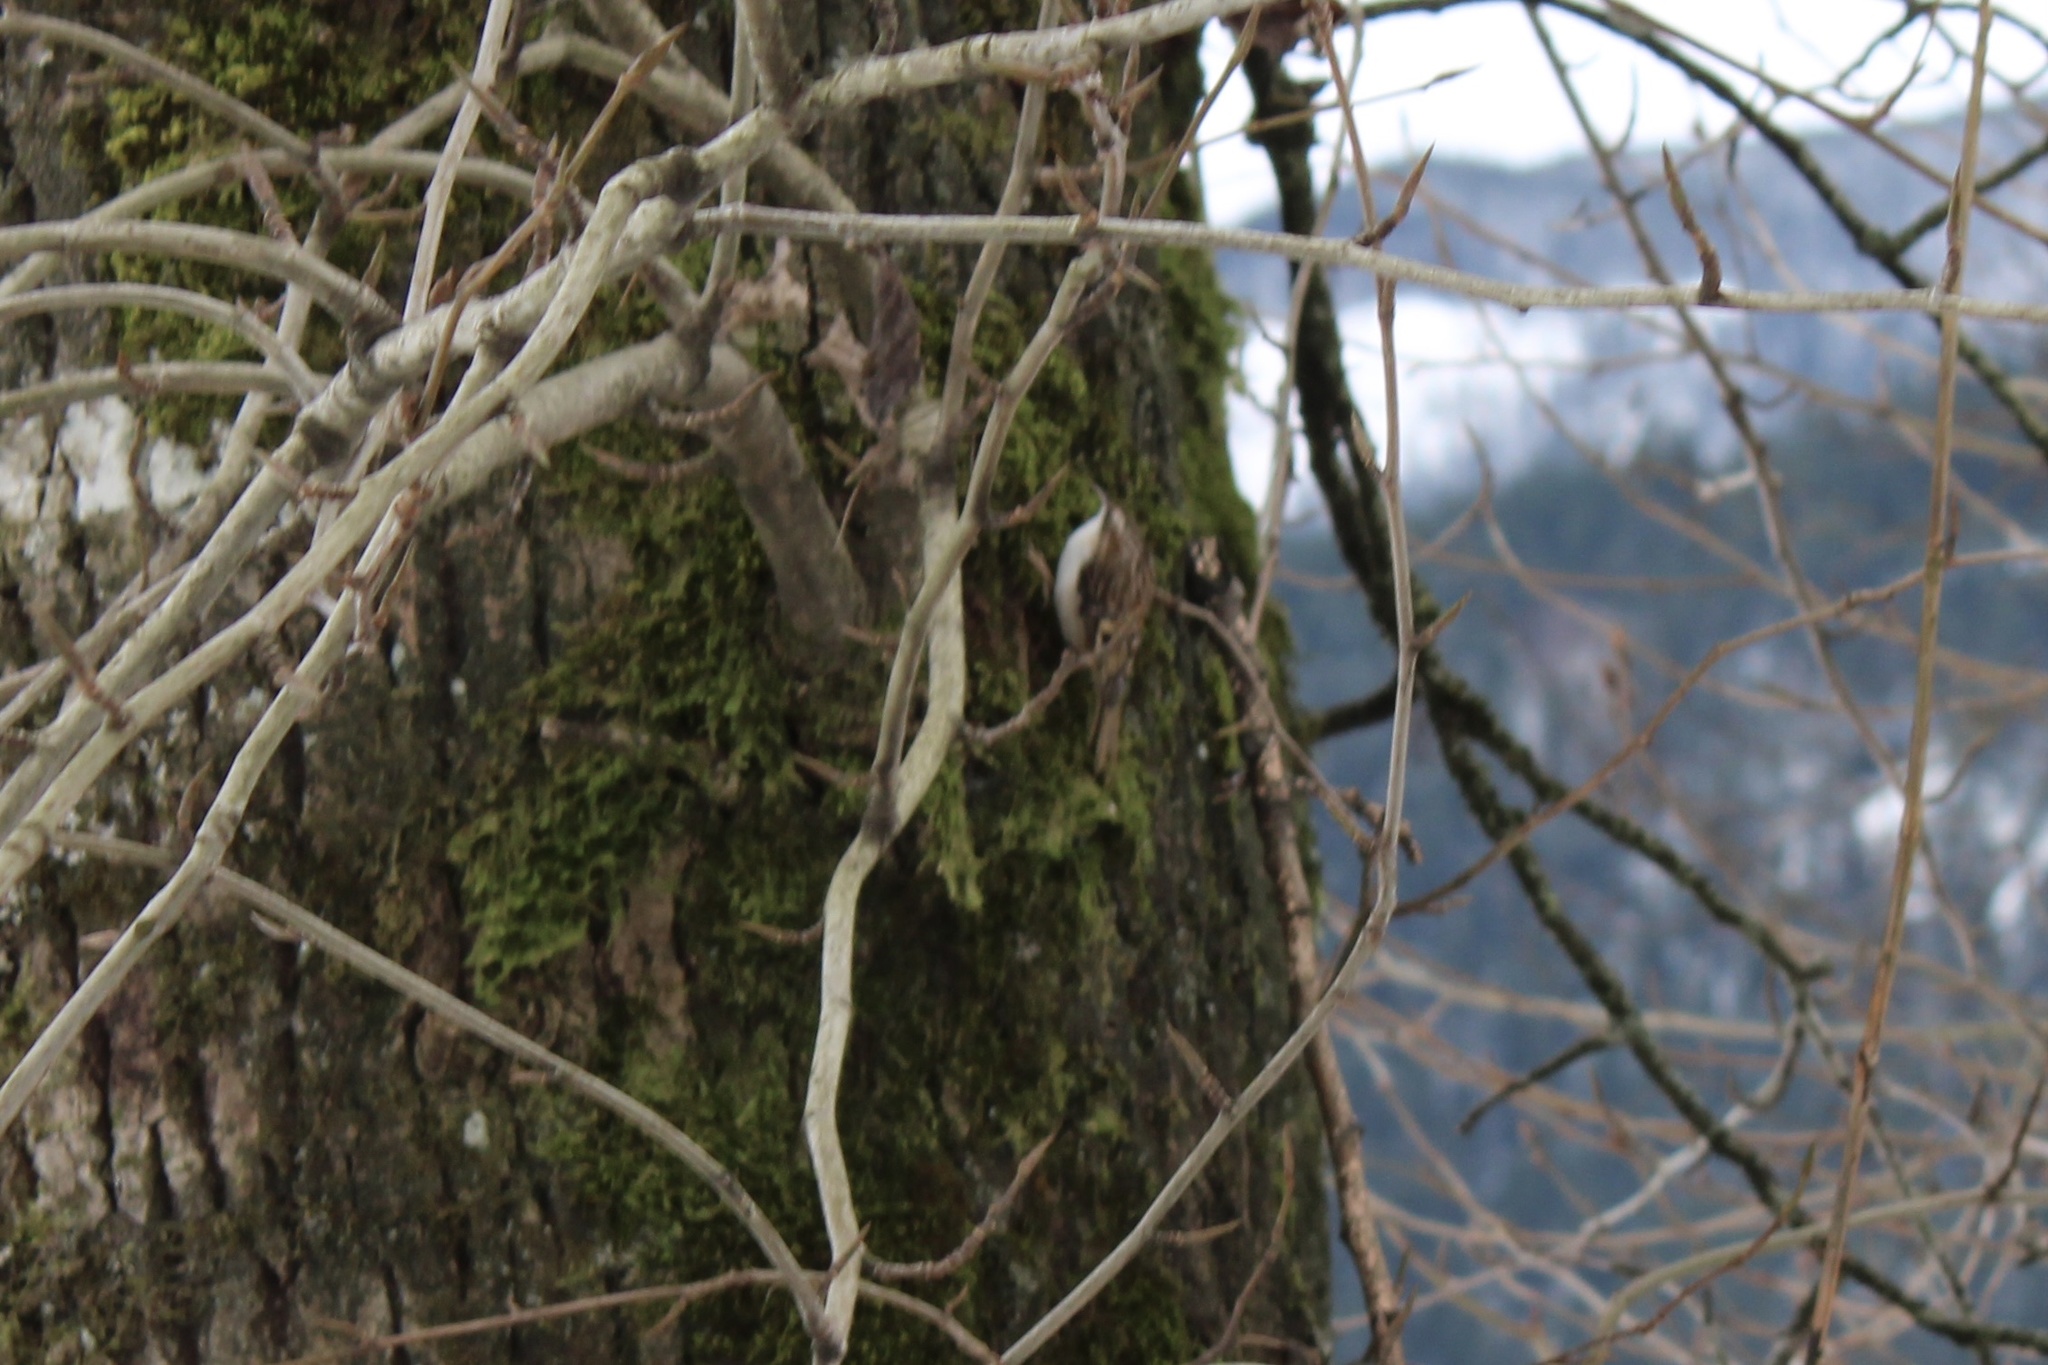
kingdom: Animalia
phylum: Chordata
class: Aves
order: Passeriformes
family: Certhiidae
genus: Certhia
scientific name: Certhia americana
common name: Brown creeper
